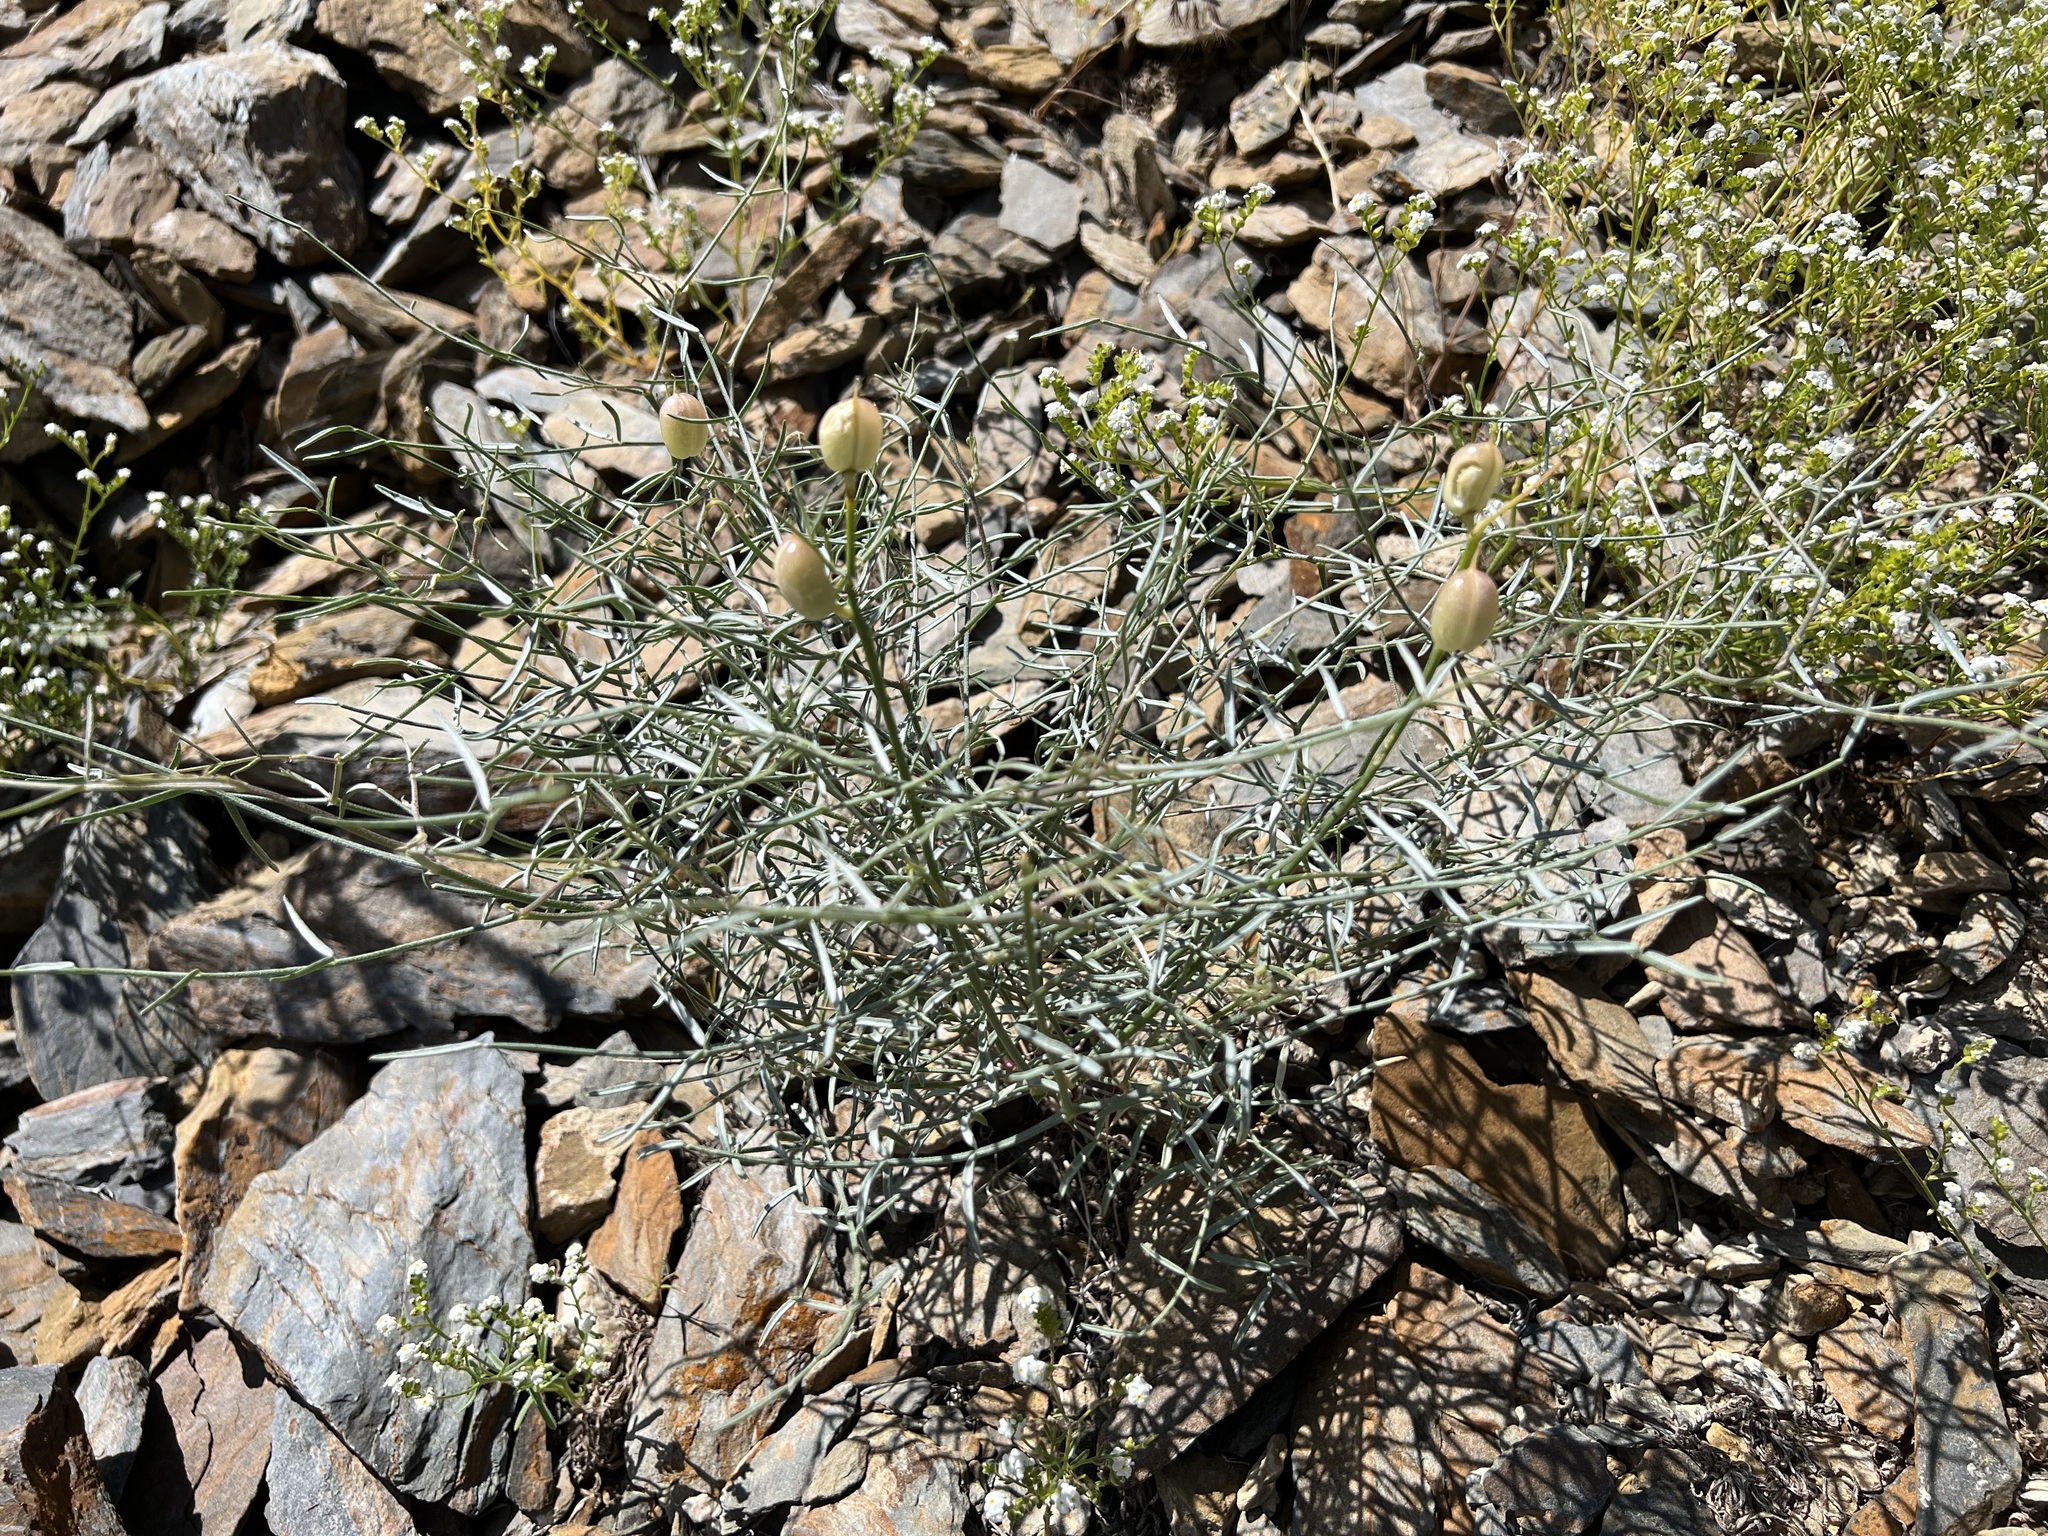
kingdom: Plantae
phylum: Tracheophyta
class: Magnoliopsida
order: Fabales
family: Fabaceae
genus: Astragalus
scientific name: Astragalus serenoi
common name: Naked milk-vetch
